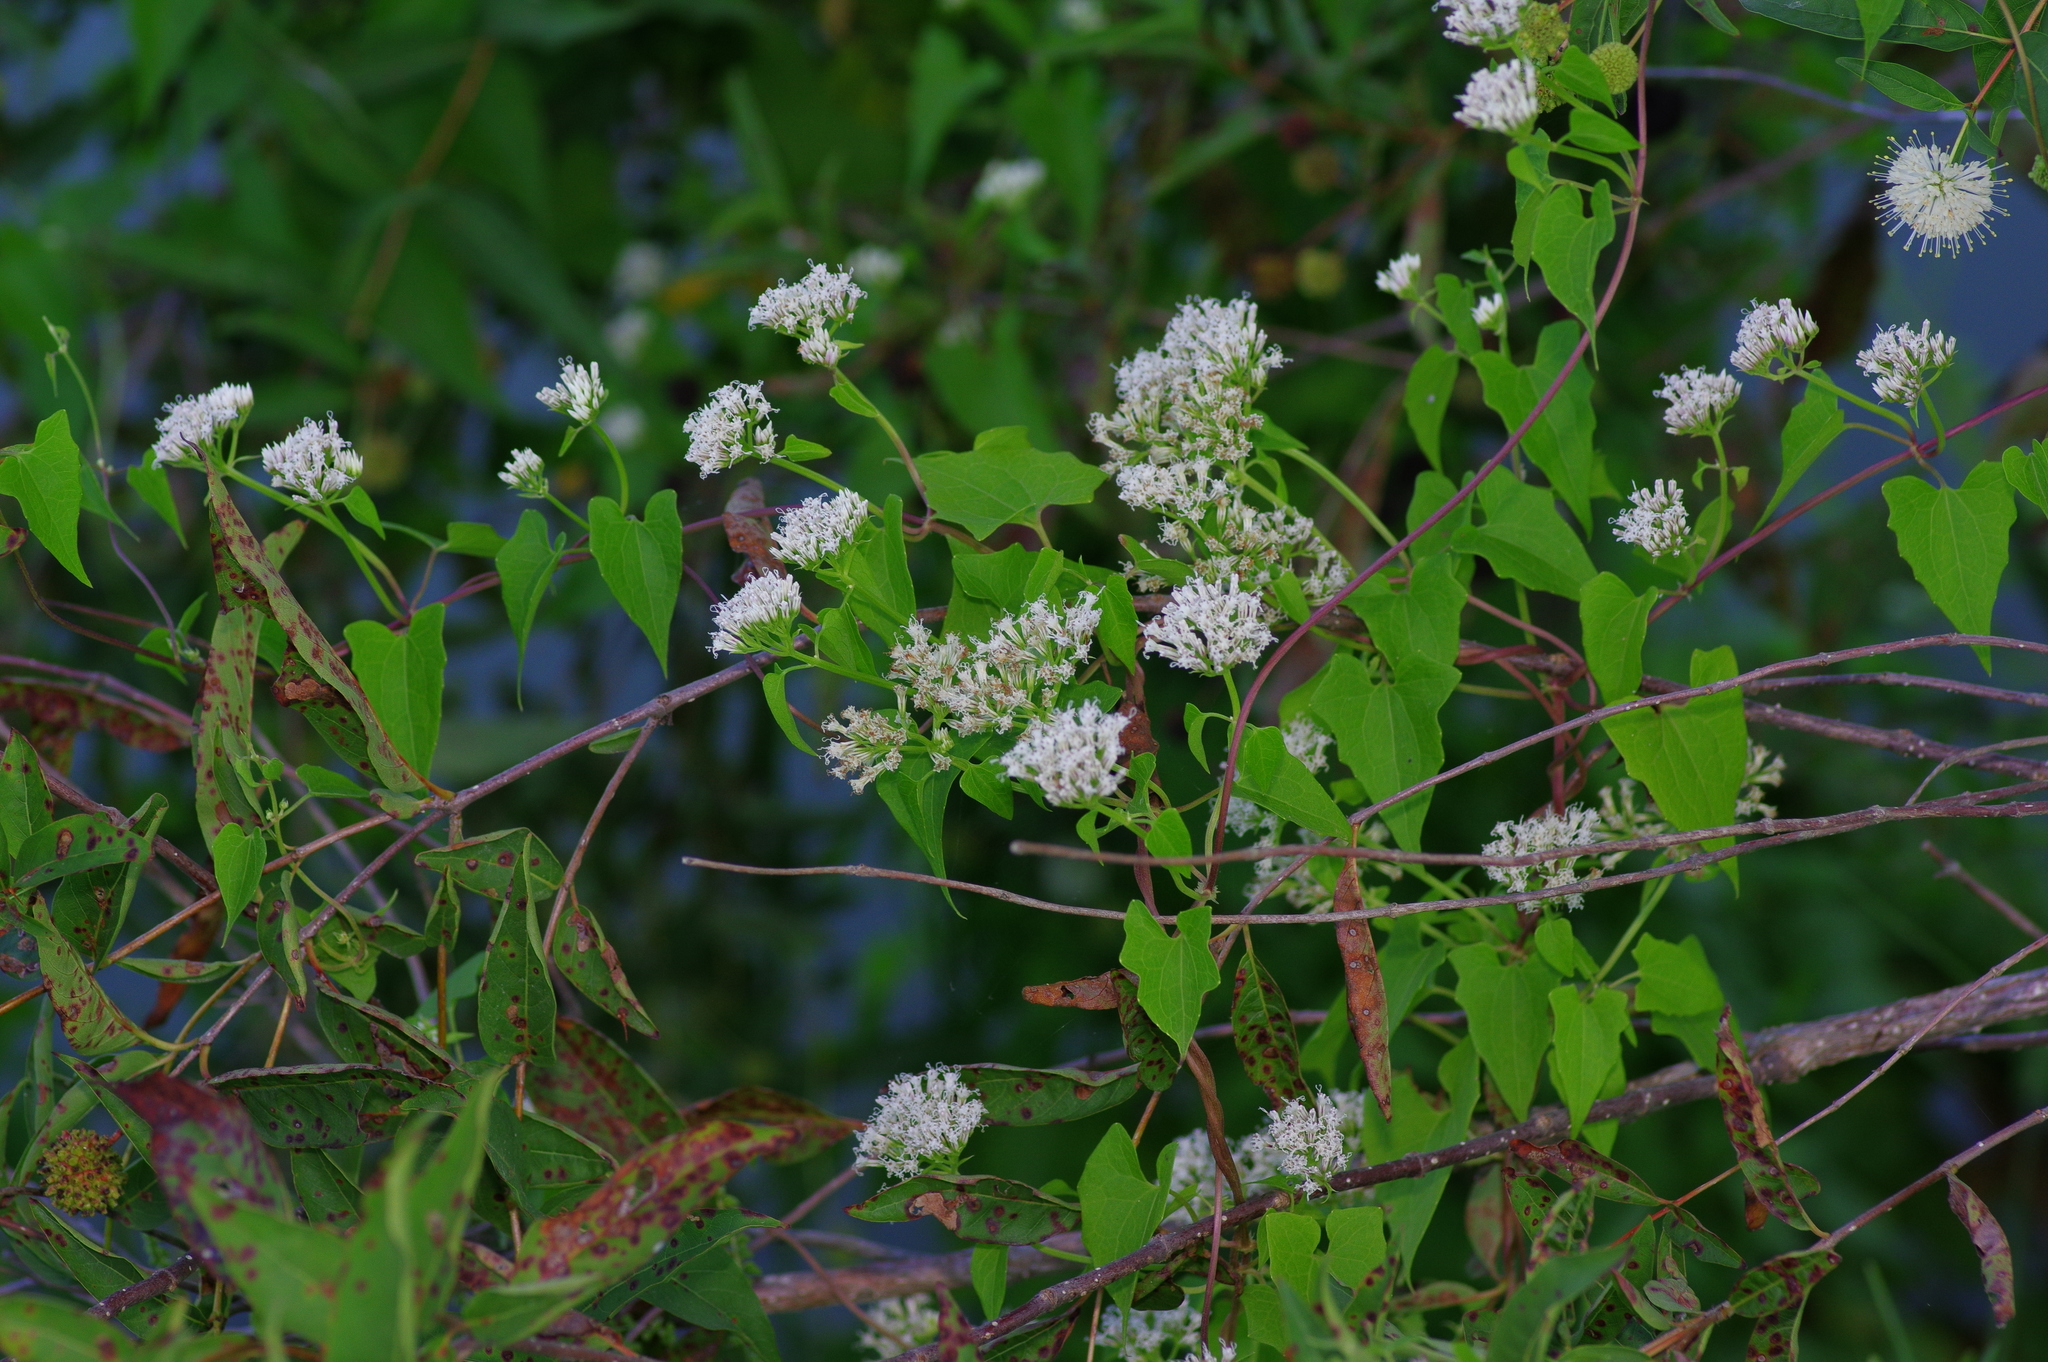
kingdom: Plantae
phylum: Tracheophyta
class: Magnoliopsida
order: Asterales
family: Asteraceae
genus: Mikania
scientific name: Mikania scandens
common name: Climbing hempvine
